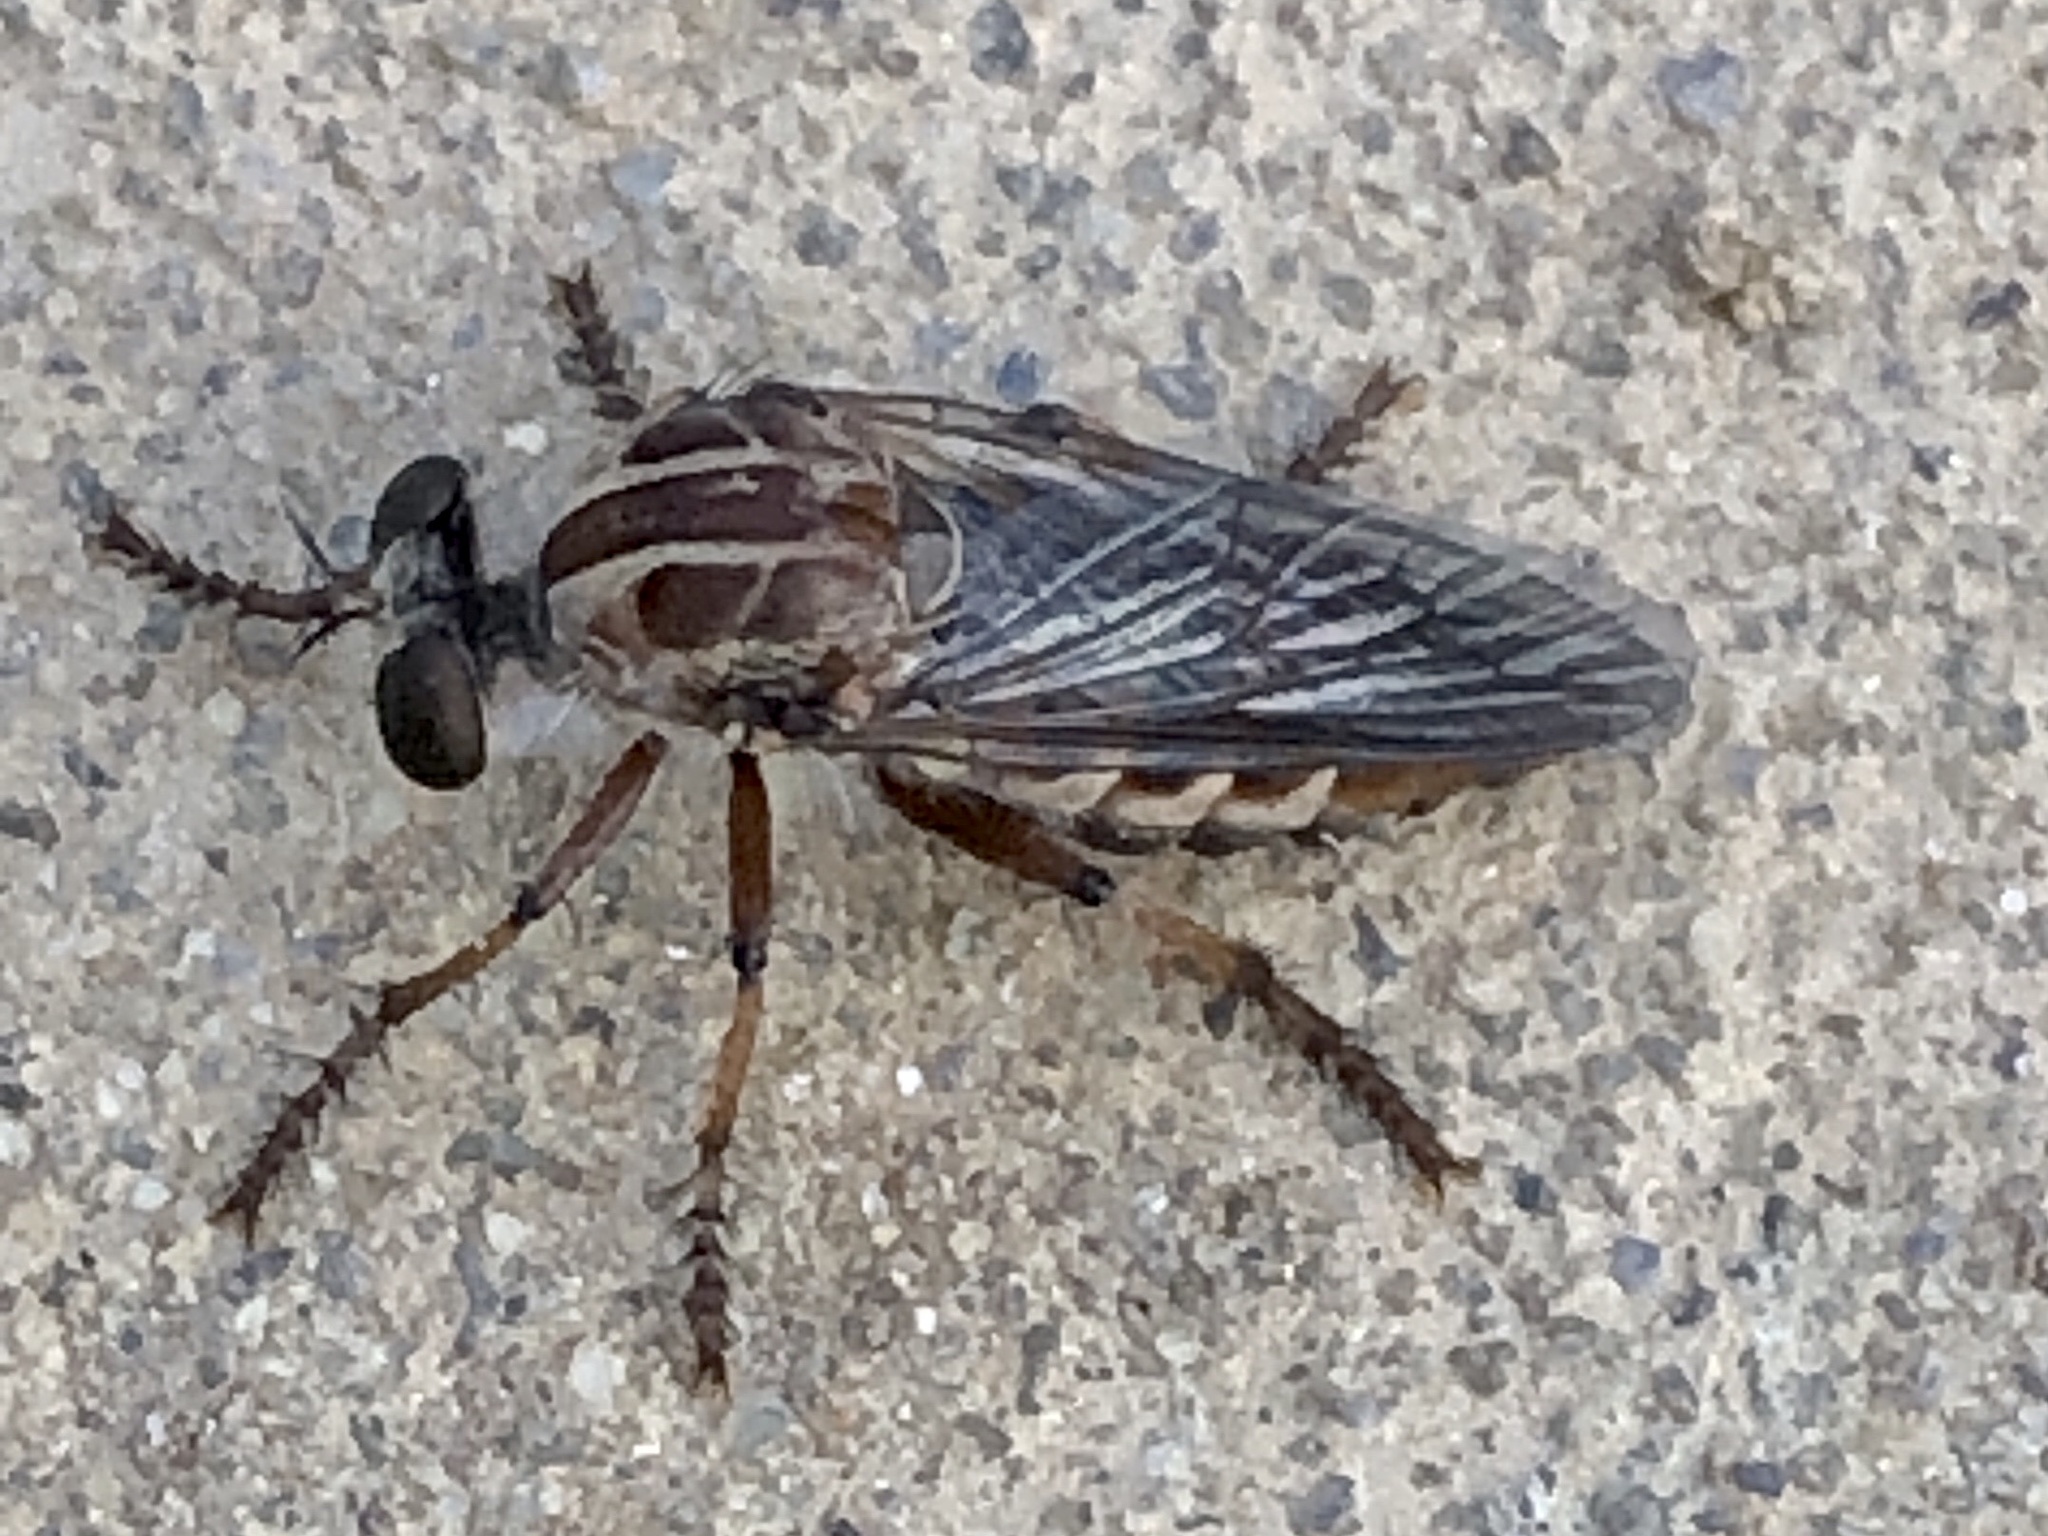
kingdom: Animalia
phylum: Arthropoda
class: Insecta
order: Diptera
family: Asilidae
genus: Heteropogon
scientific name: Heteropogon macerinus
